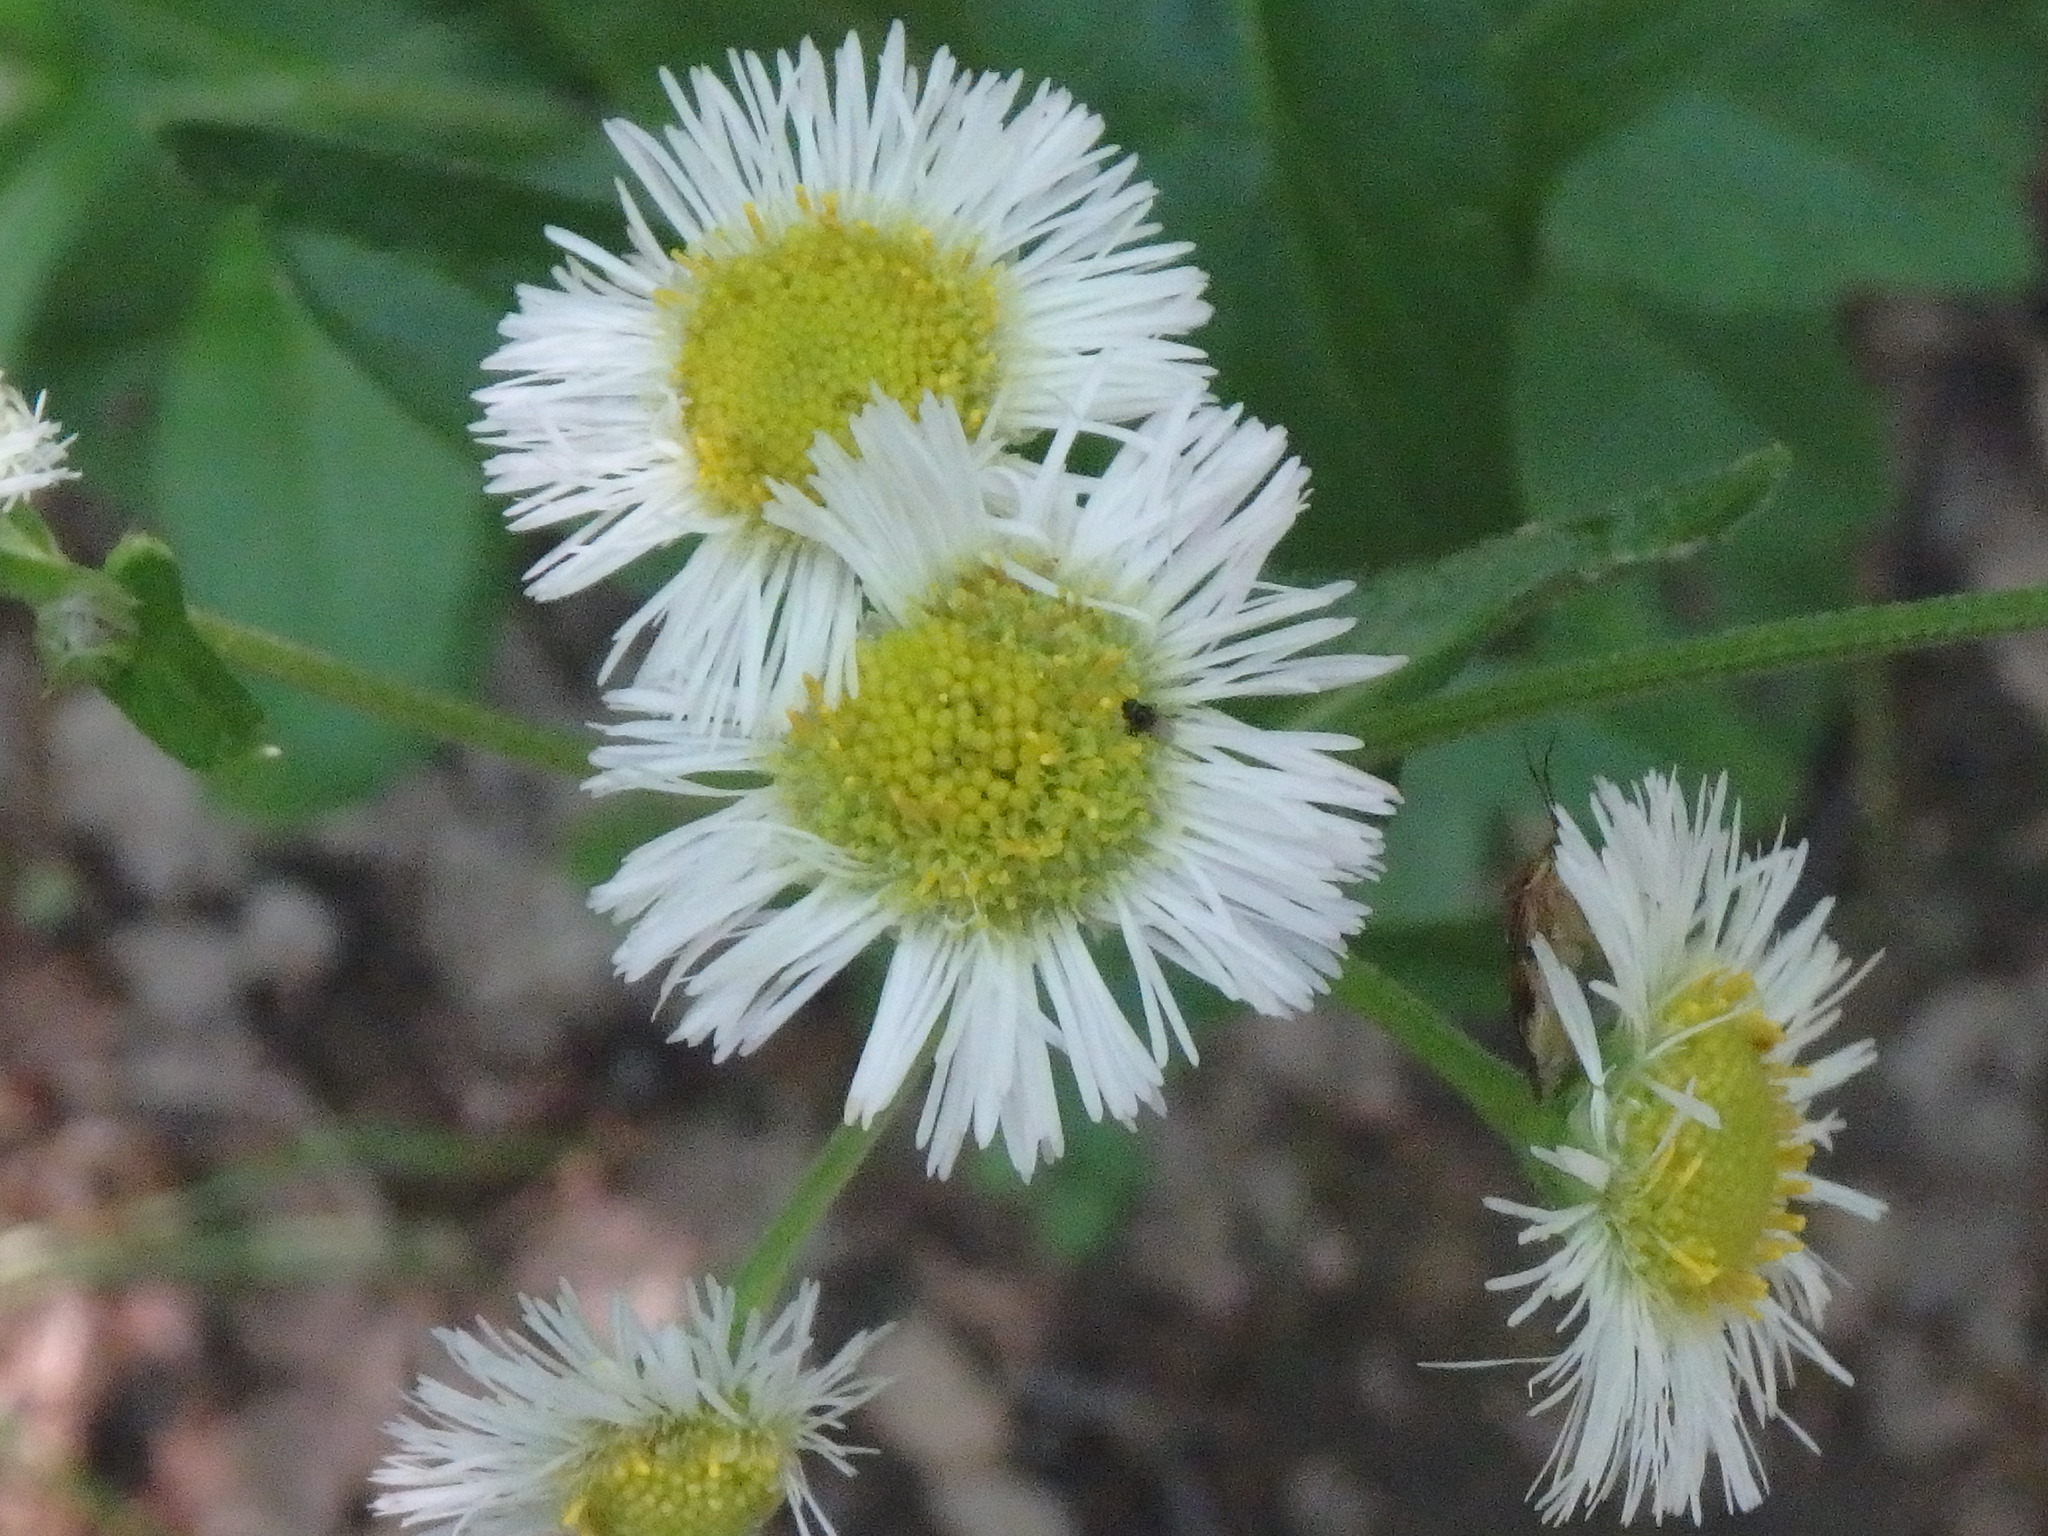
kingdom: Plantae
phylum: Tracheophyta
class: Magnoliopsida
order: Asterales
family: Asteraceae
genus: Erigeron
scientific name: Erigeron philadelphicus
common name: Robin's-plantain
